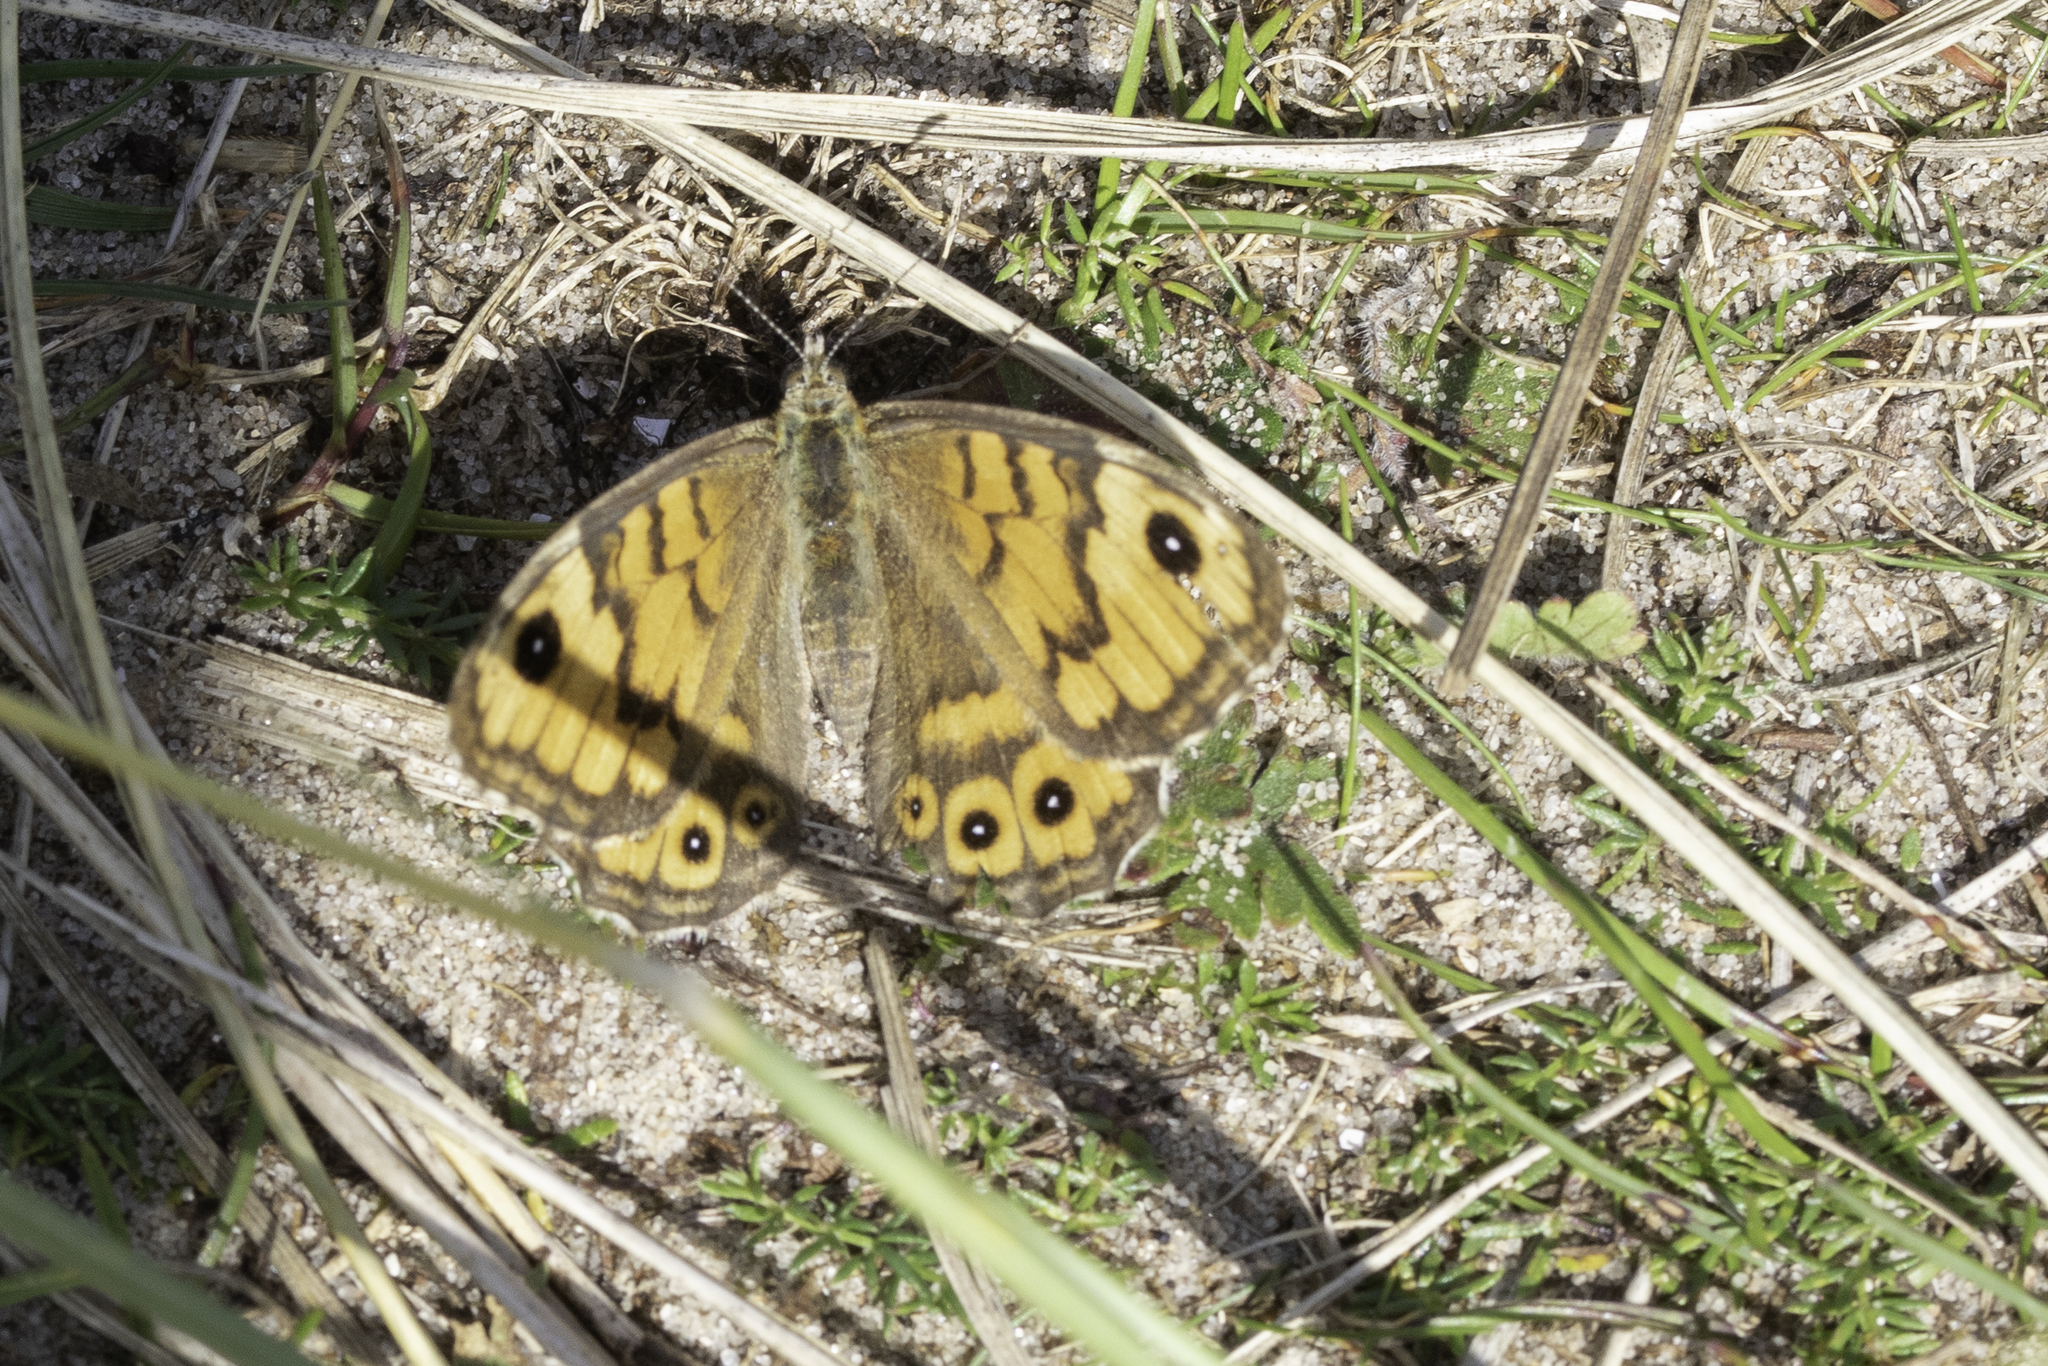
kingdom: Animalia
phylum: Arthropoda
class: Insecta
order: Lepidoptera
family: Nymphalidae
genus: Pararge
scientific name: Pararge Lasiommata megera
